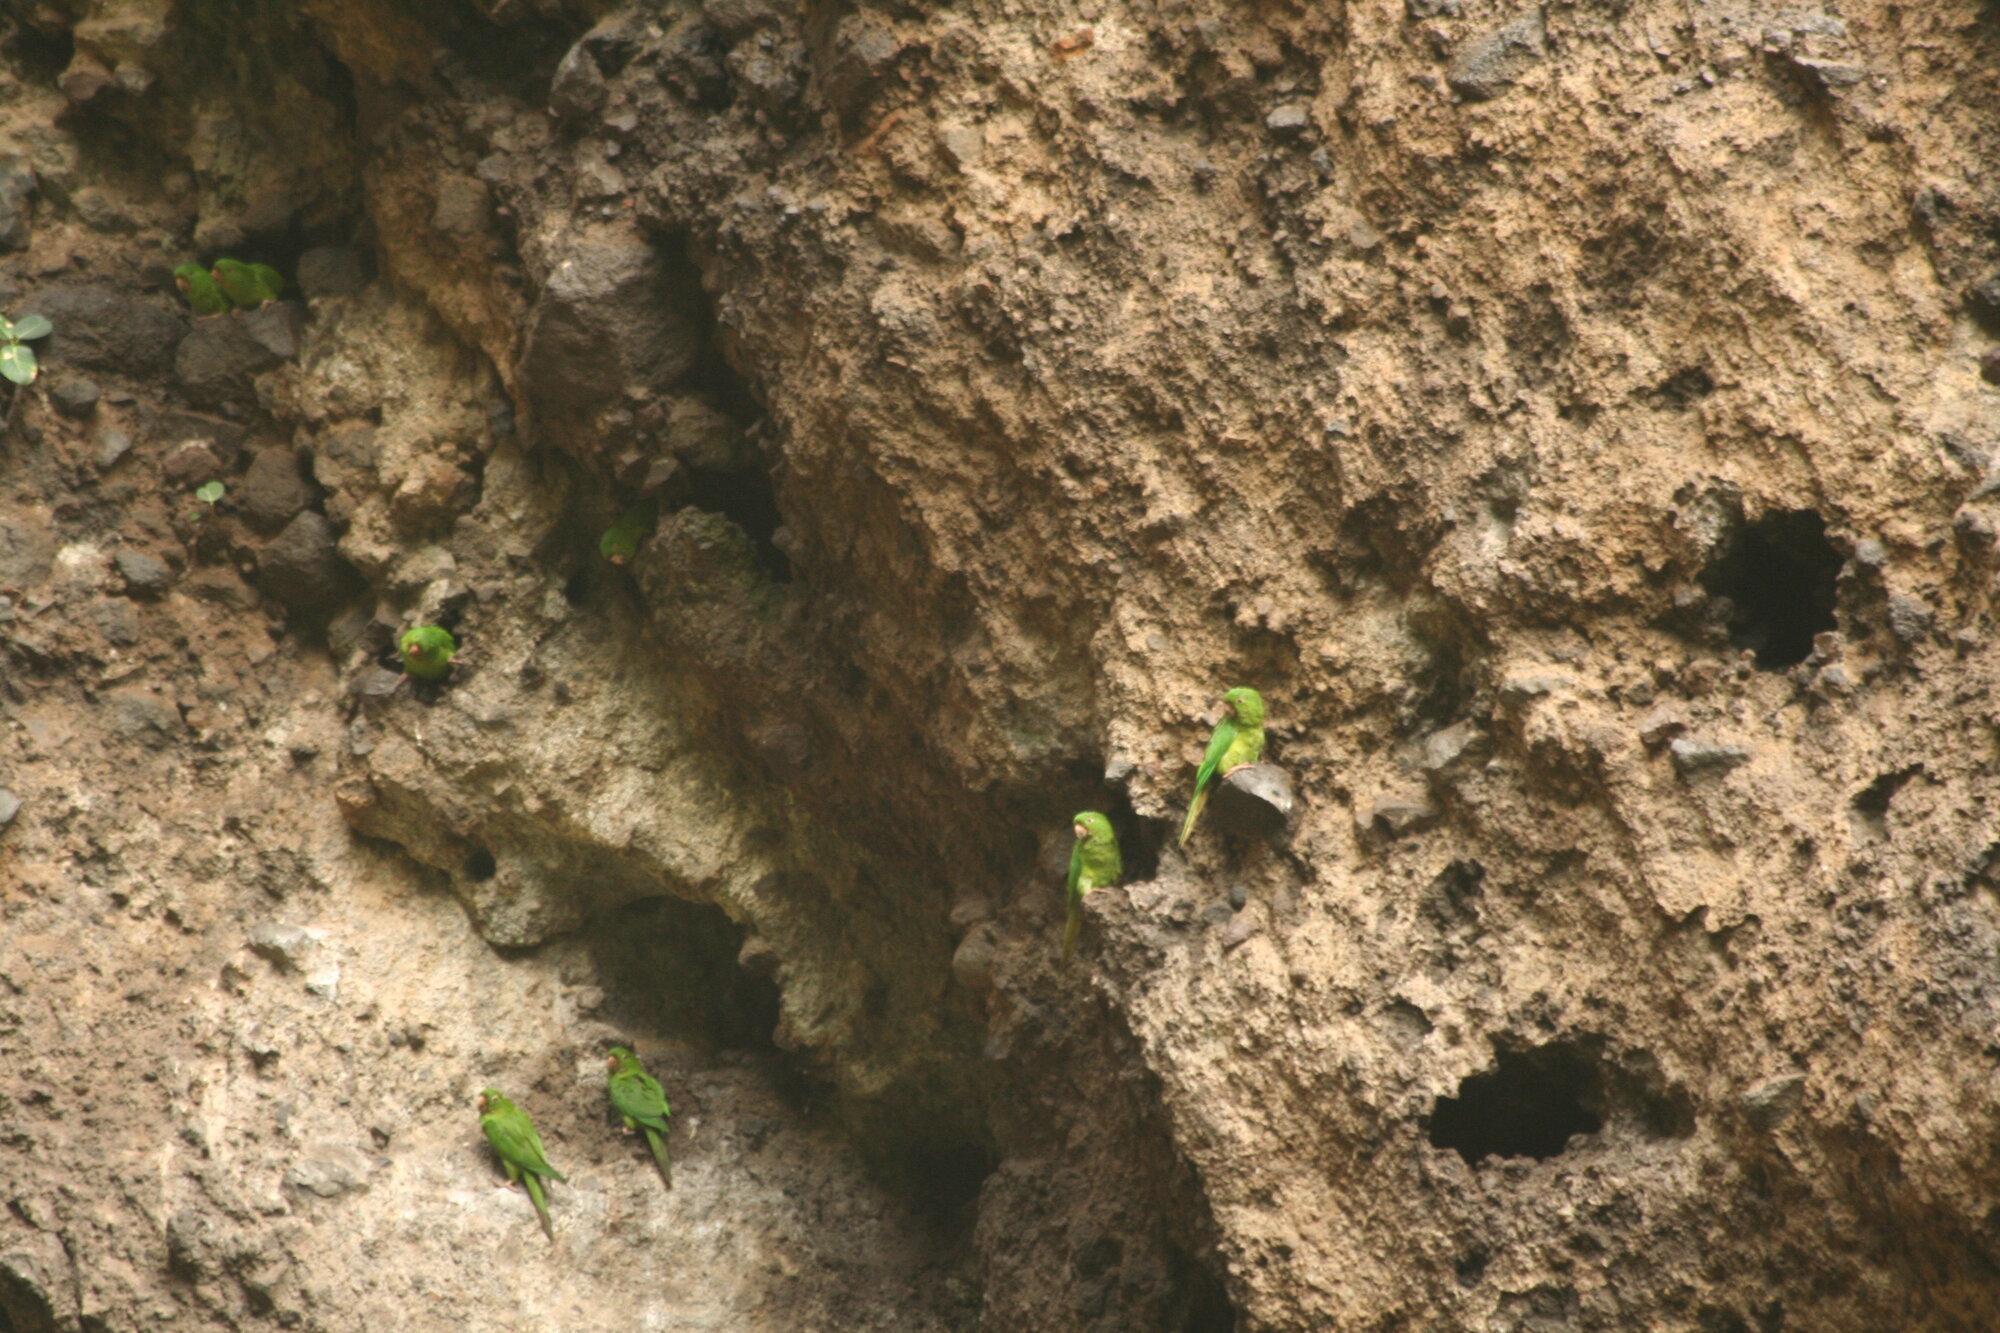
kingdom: Animalia
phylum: Chordata
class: Aves
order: Psittaciformes
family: Psittacidae
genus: Aratinga
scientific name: Aratinga strenua
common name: Pacific parakeet
